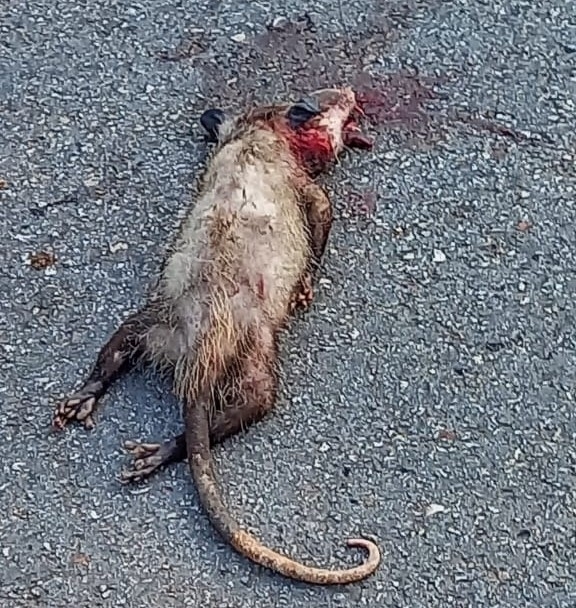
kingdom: Animalia
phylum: Chordata
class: Mammalia
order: Didelphimorphia
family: Didelphidae
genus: Didelphis
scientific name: Didelphis
